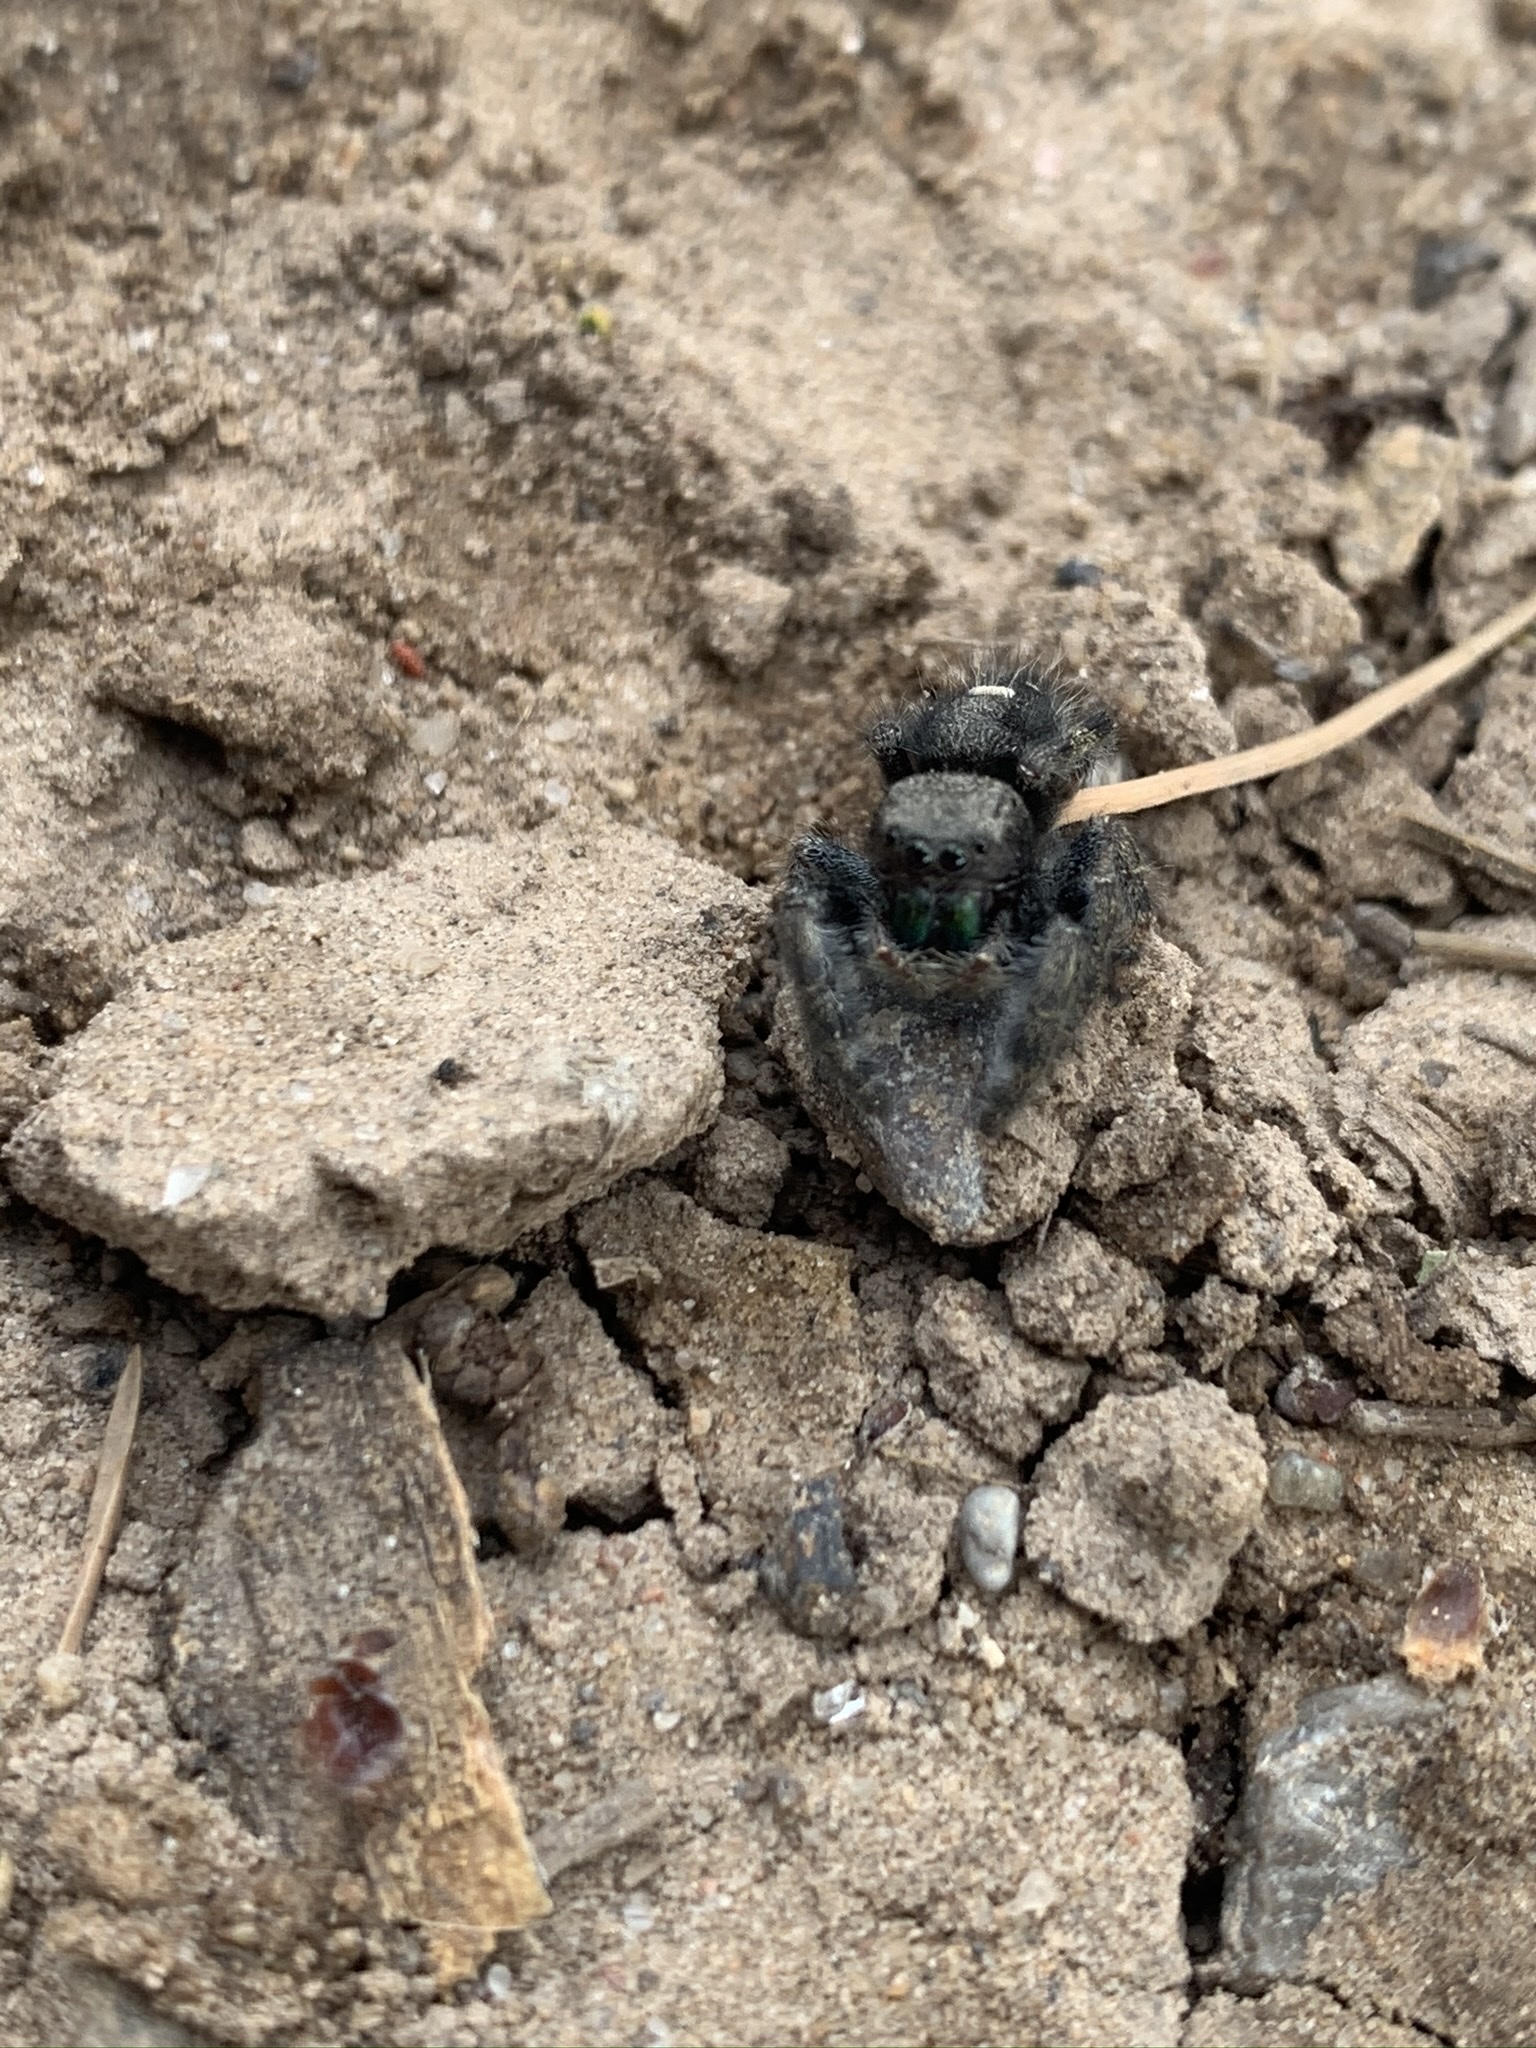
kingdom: Animalia
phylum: Arthropoda
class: Arachnida
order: Araneae
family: Salticidae
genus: Phidippus
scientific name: Phidippus audax
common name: Bold jumper
